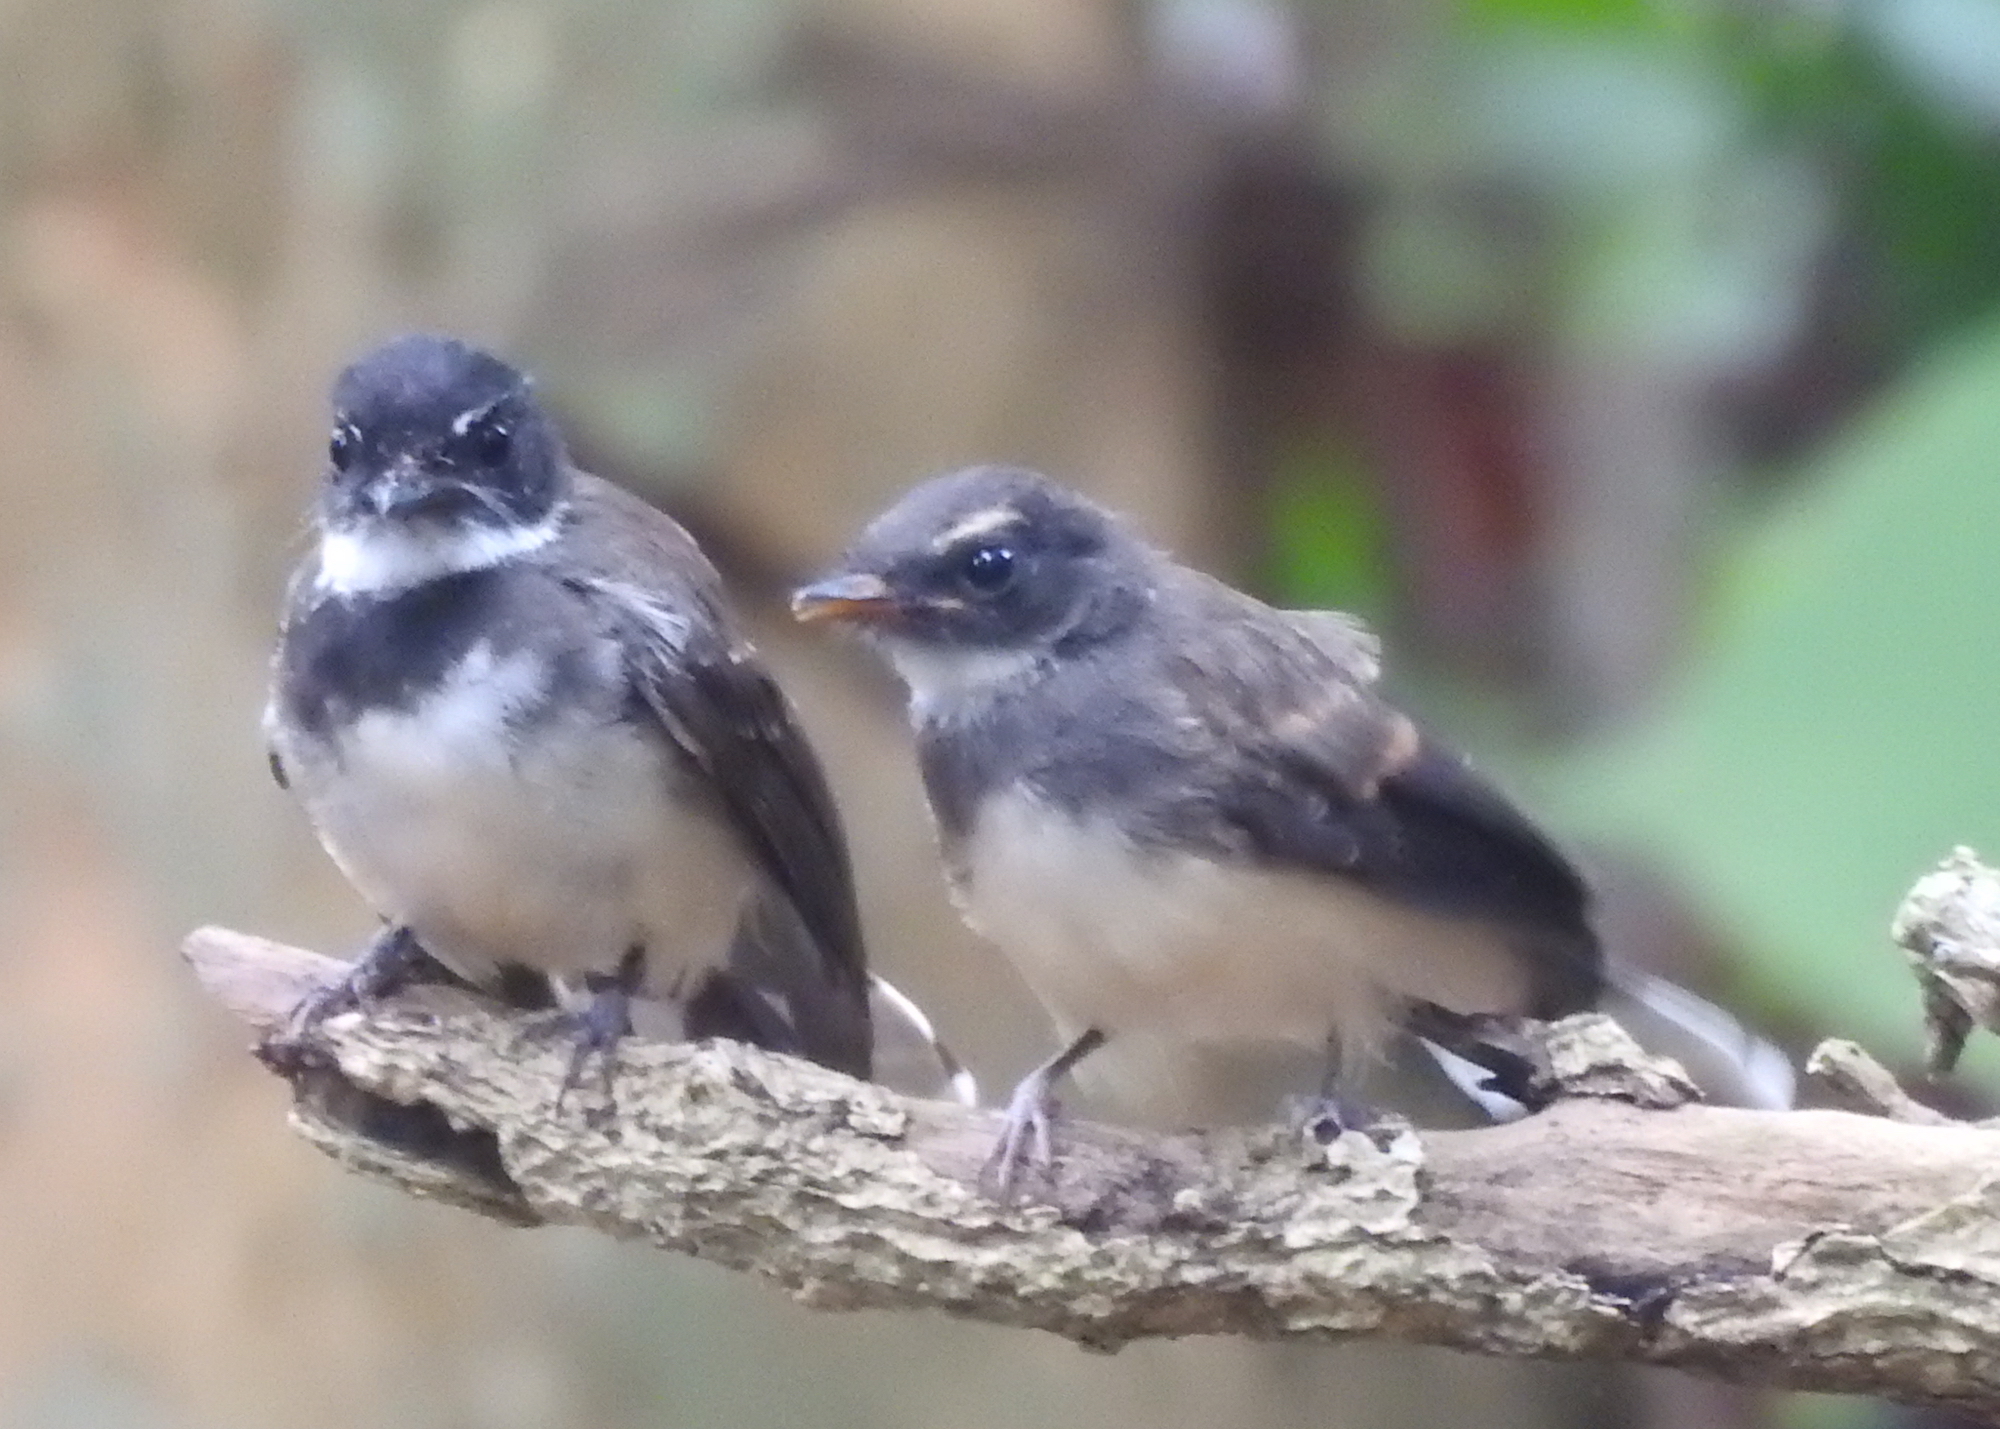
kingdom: Animalia
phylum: Chordata
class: Aves
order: Passeriformes
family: Rhipiduridae
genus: Rhipidura
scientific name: Rhipidura javanica
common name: Pied fantail
